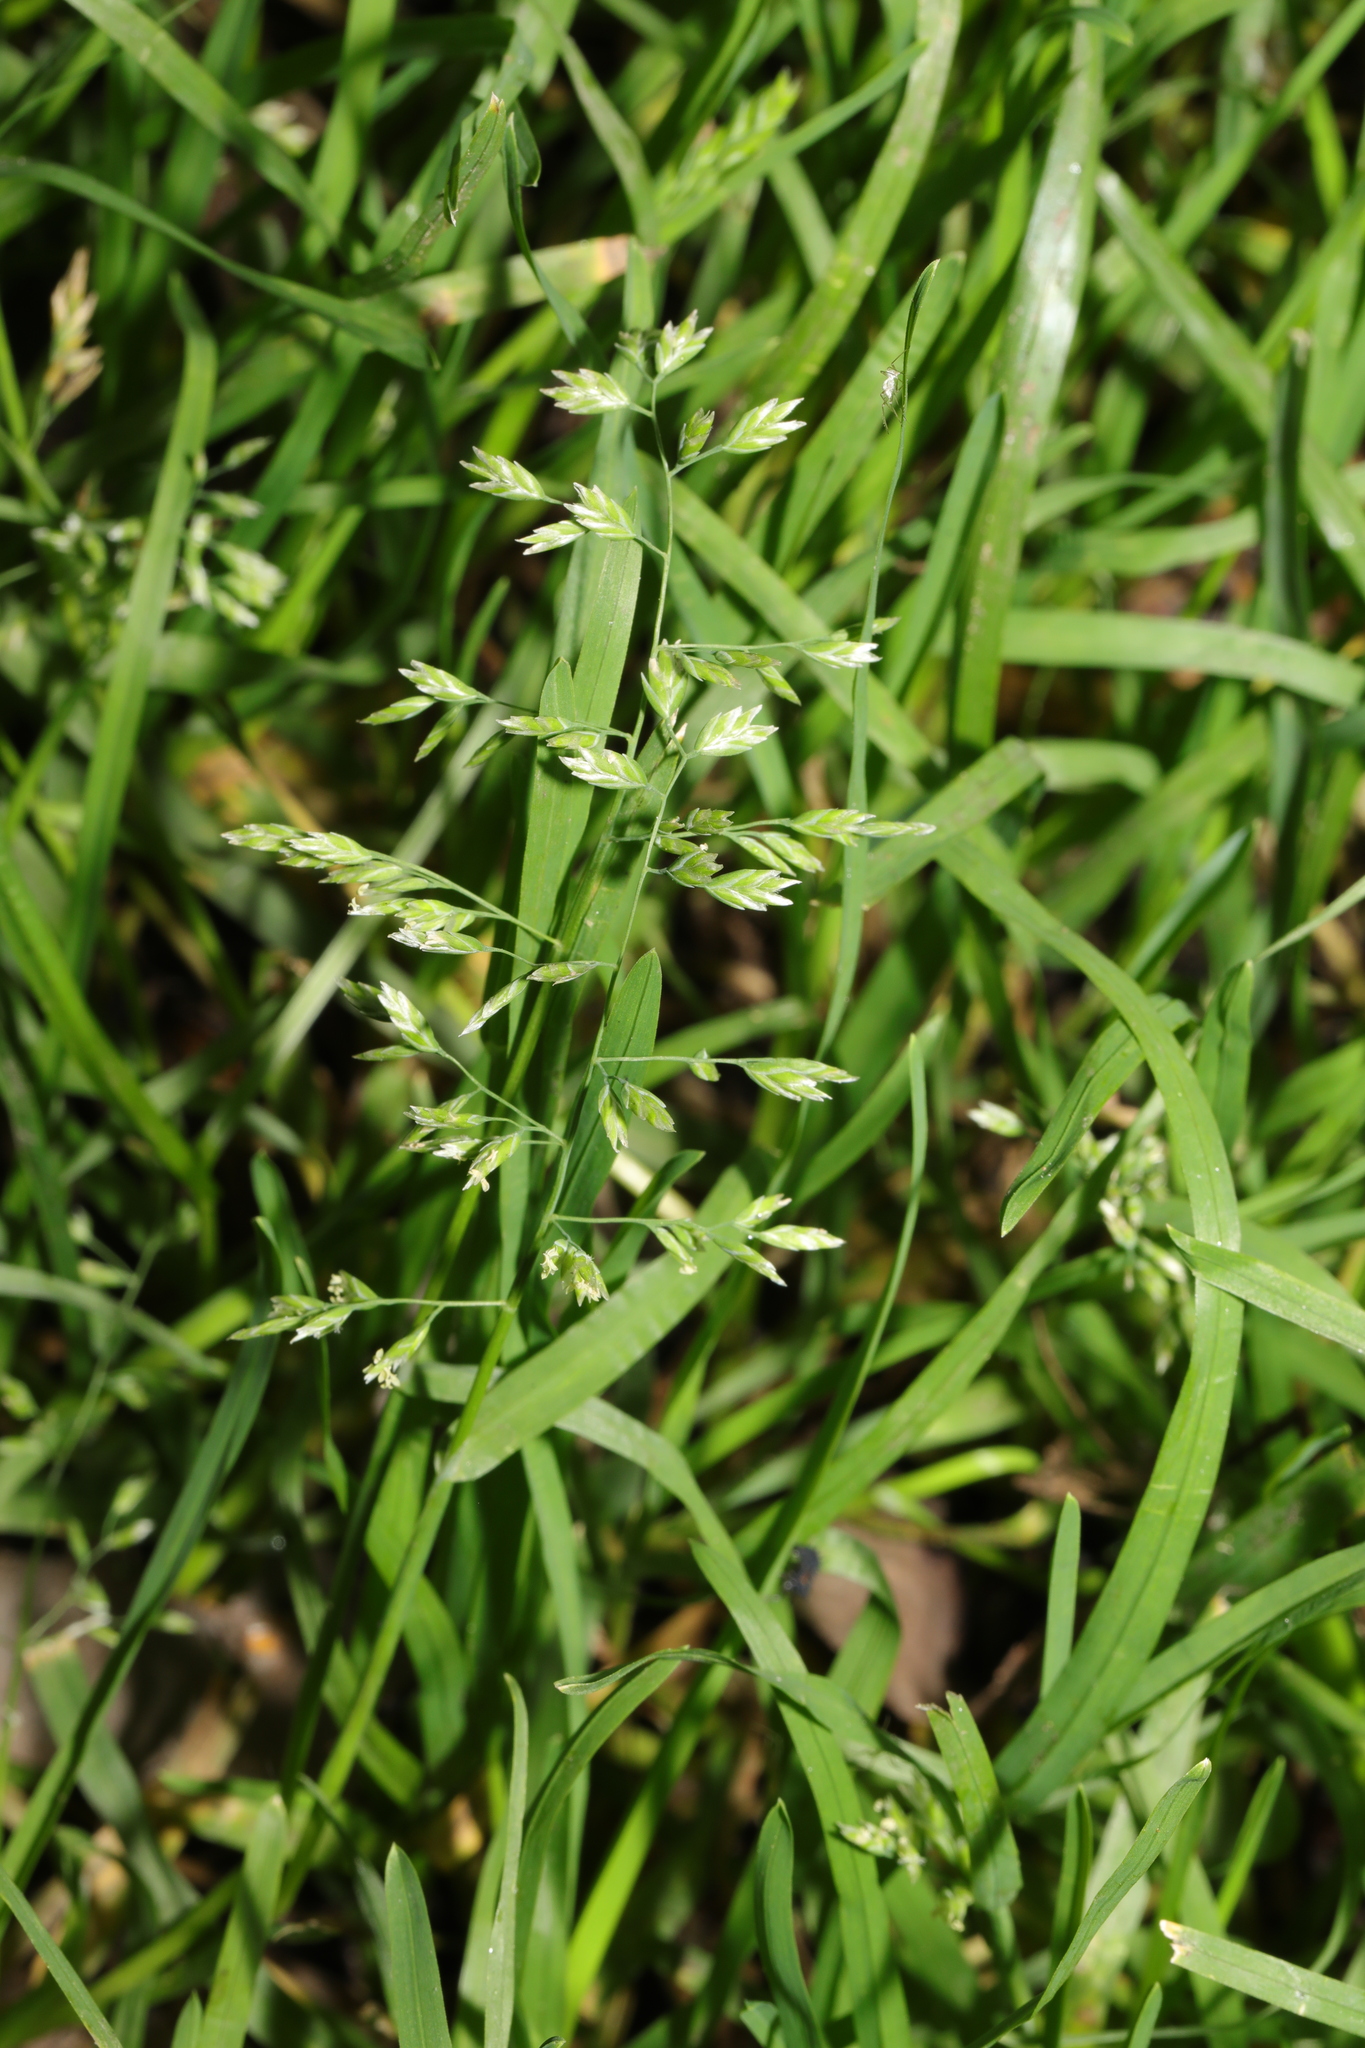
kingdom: Plantae
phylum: Tracheophyta
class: Liliopsida
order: Poales
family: Poaceae
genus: Poa
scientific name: Poa annua
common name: Annual bluegrass
